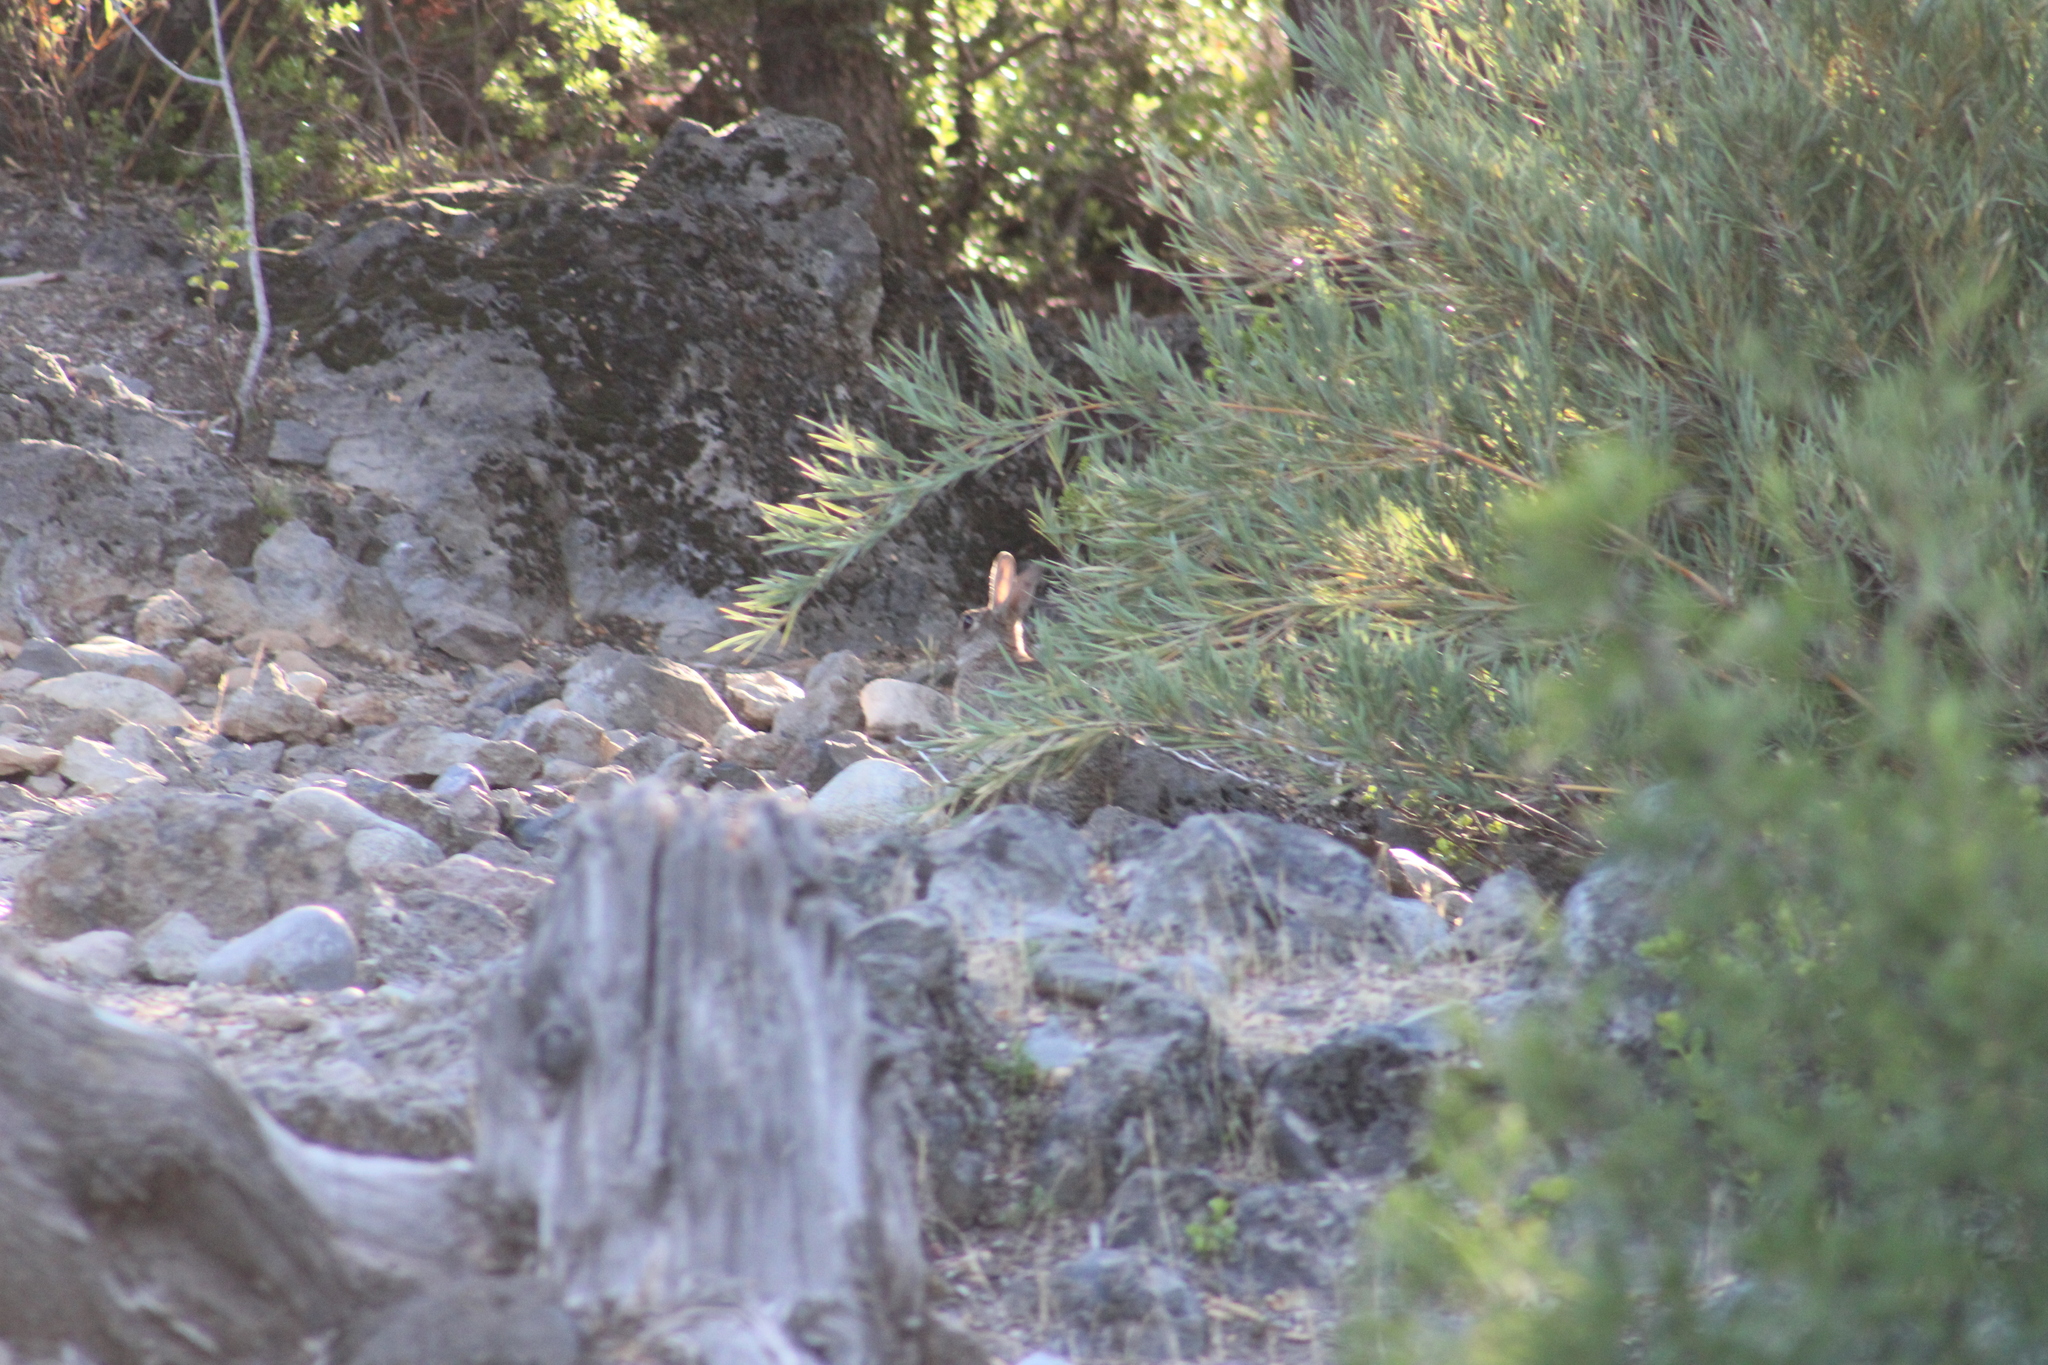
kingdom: Animalia
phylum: Chordata
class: Mammalia
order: Lagomorpha
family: Leporidae
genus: Oryctolagus
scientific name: Oryctolagus cuniculus
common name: European rabbit
